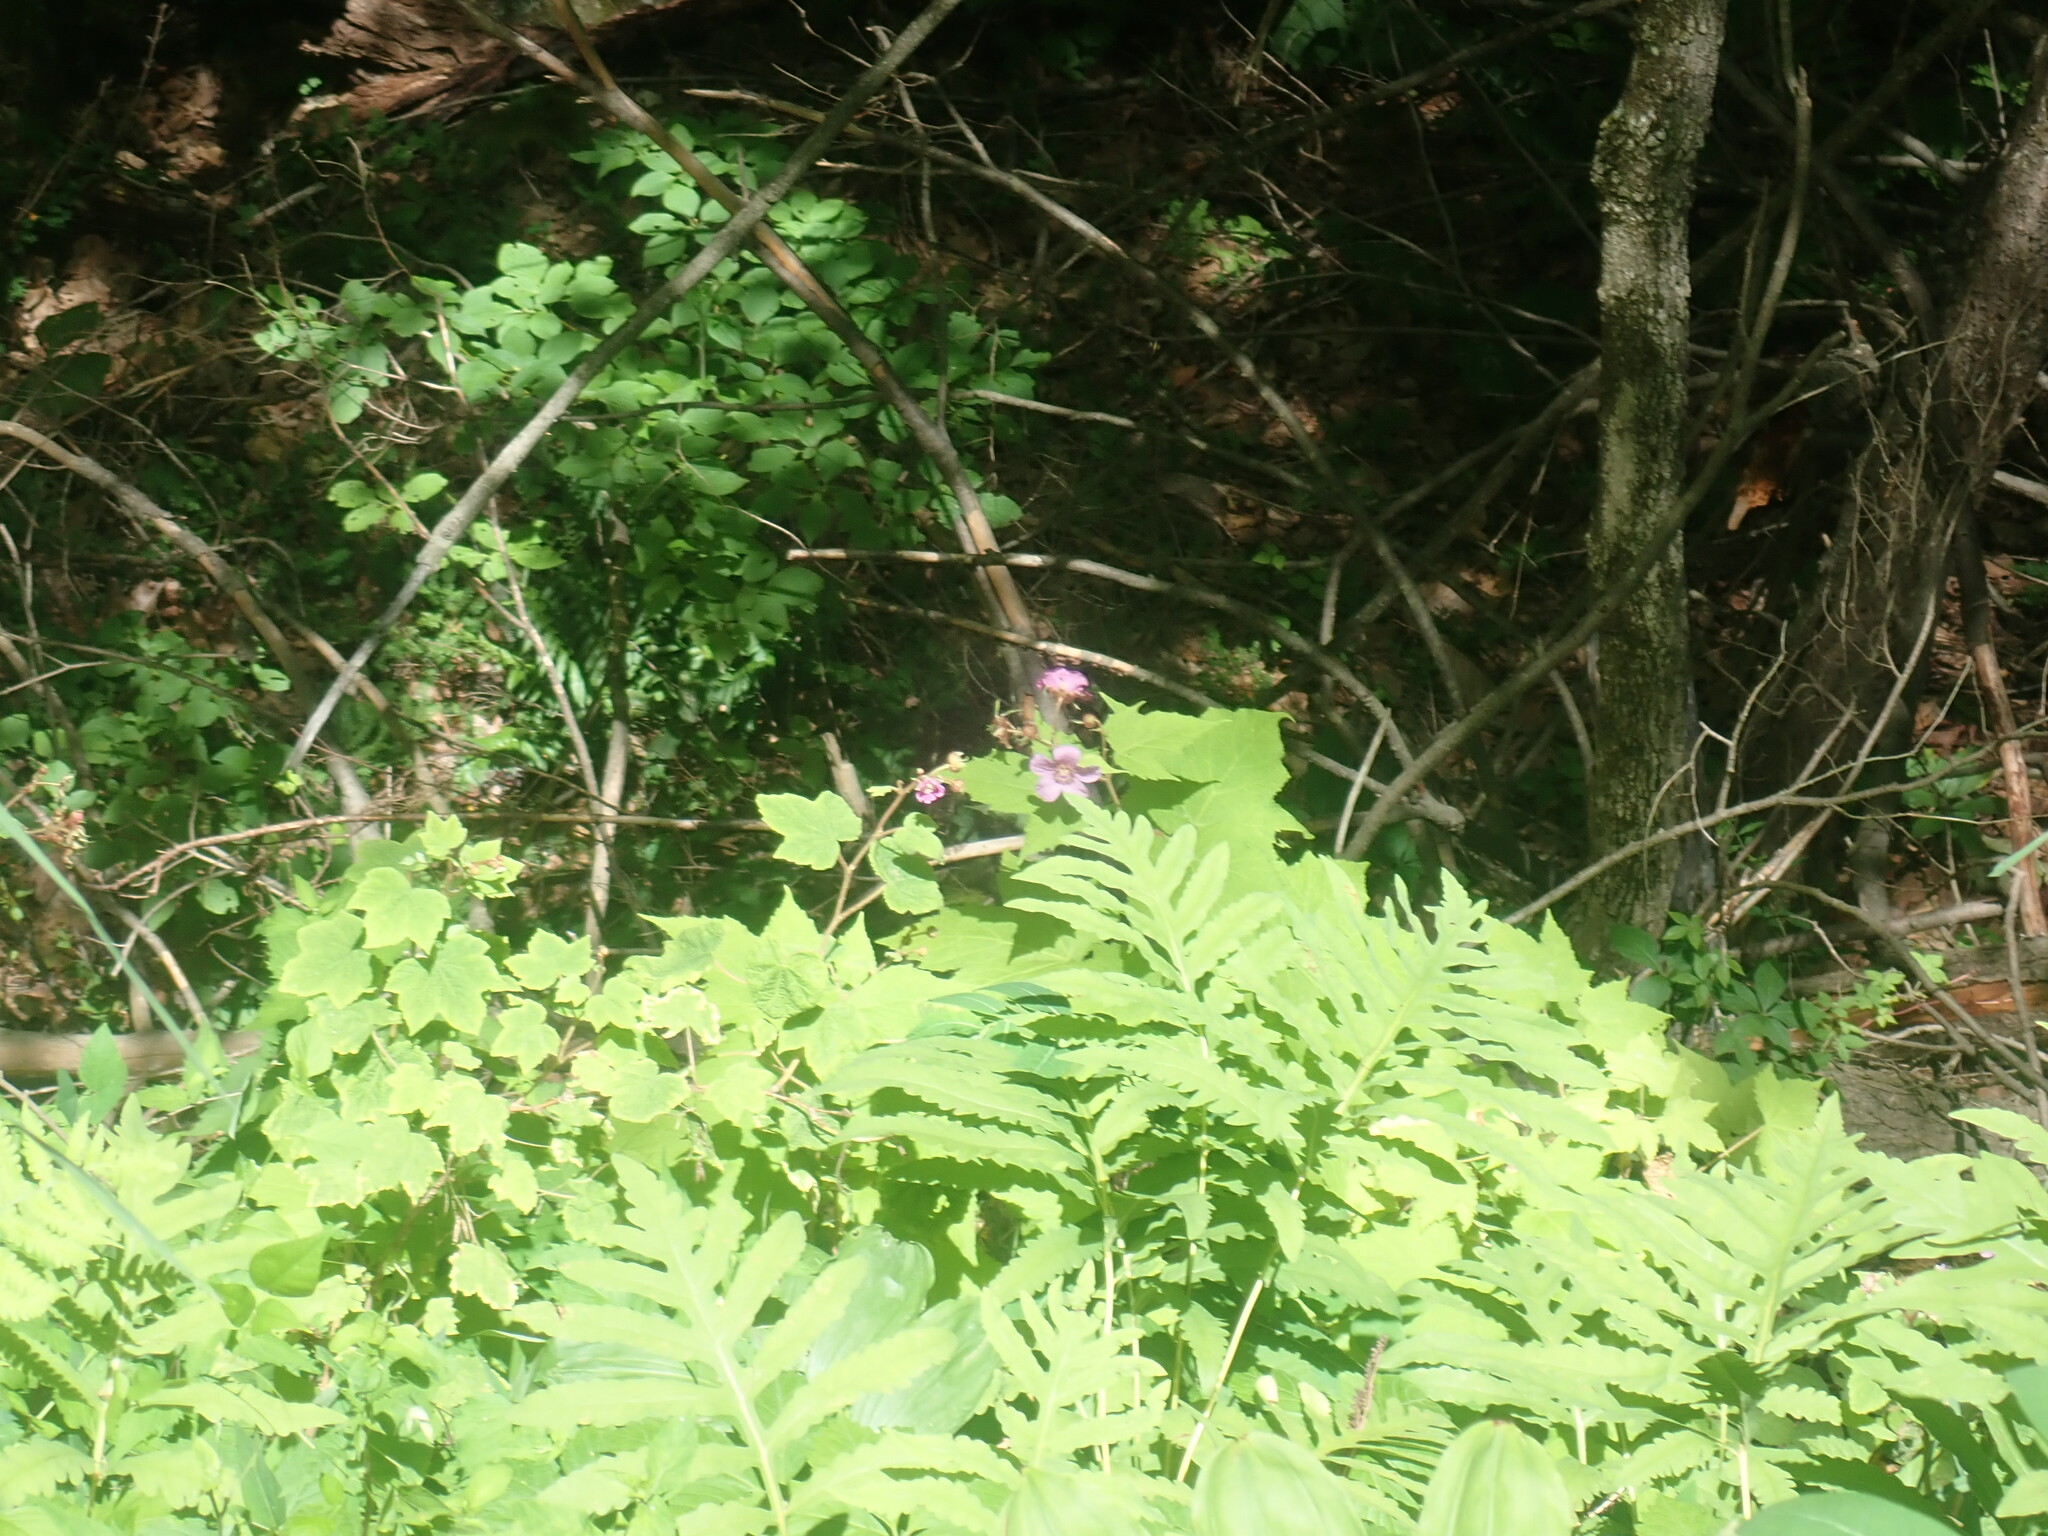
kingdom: Plantae
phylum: Tracheophyta
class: Magnoliopsida
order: Rosales
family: Rosaceae
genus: Rubus
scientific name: Rubus odoratus
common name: Purple-flowered raspberry
